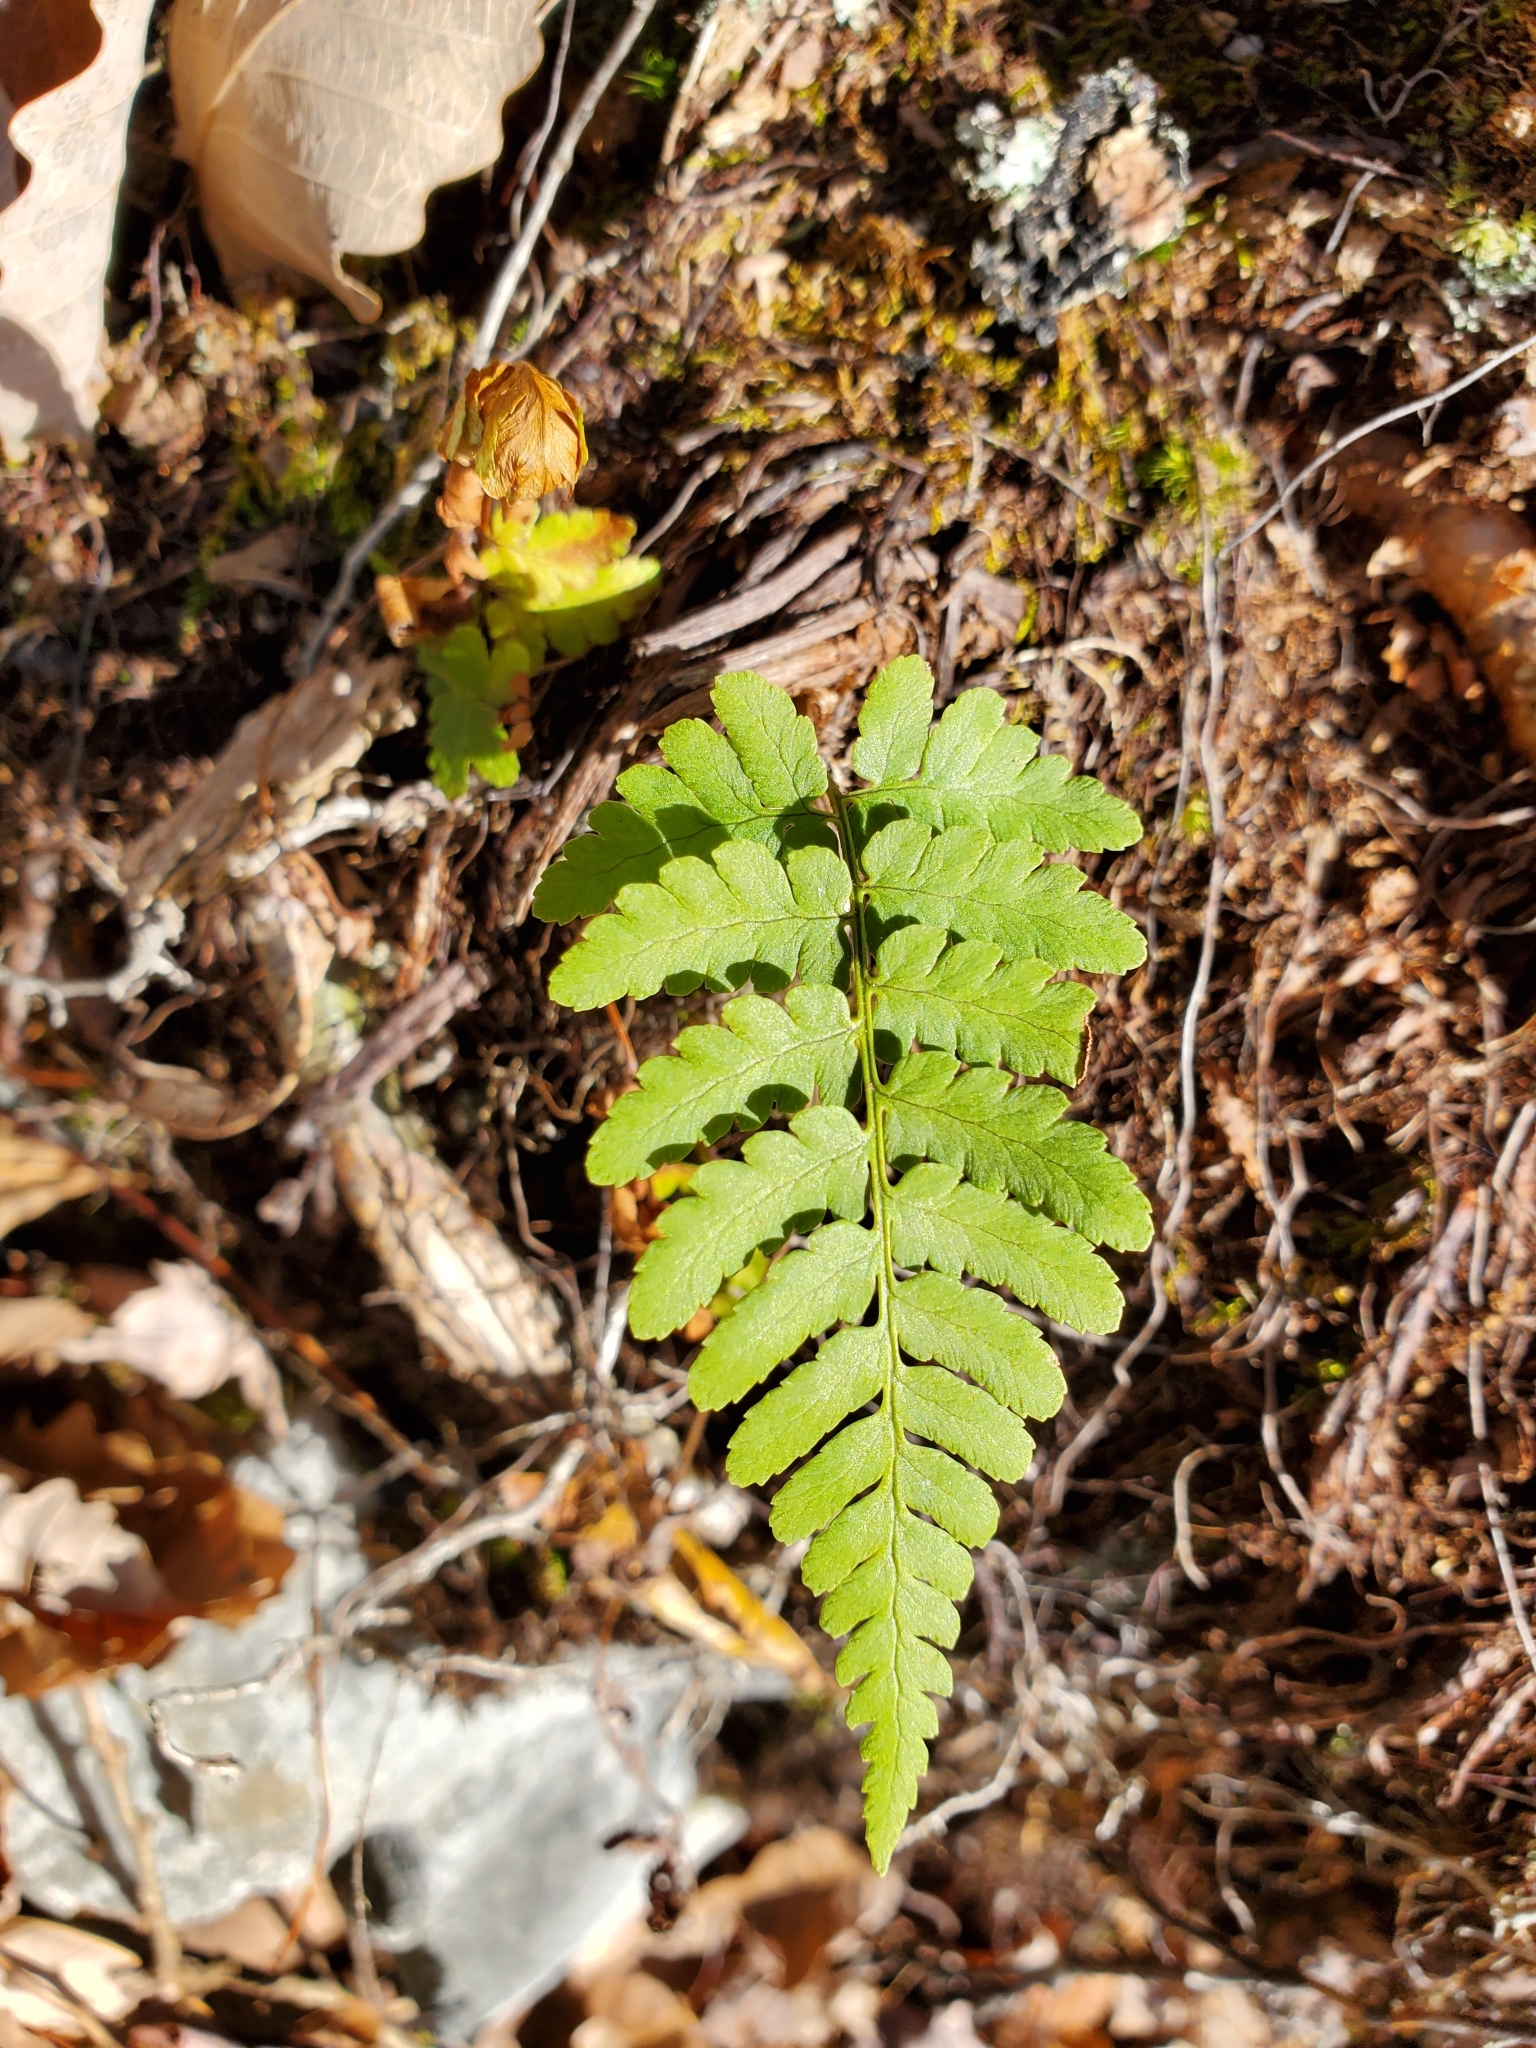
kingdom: Plantae
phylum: Tracheophyta
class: Polypodiopsida
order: Polypodiales
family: Dryopteridaceae
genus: Dryopteris
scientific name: Dryopteris marginalis
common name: Marginal wood fern
